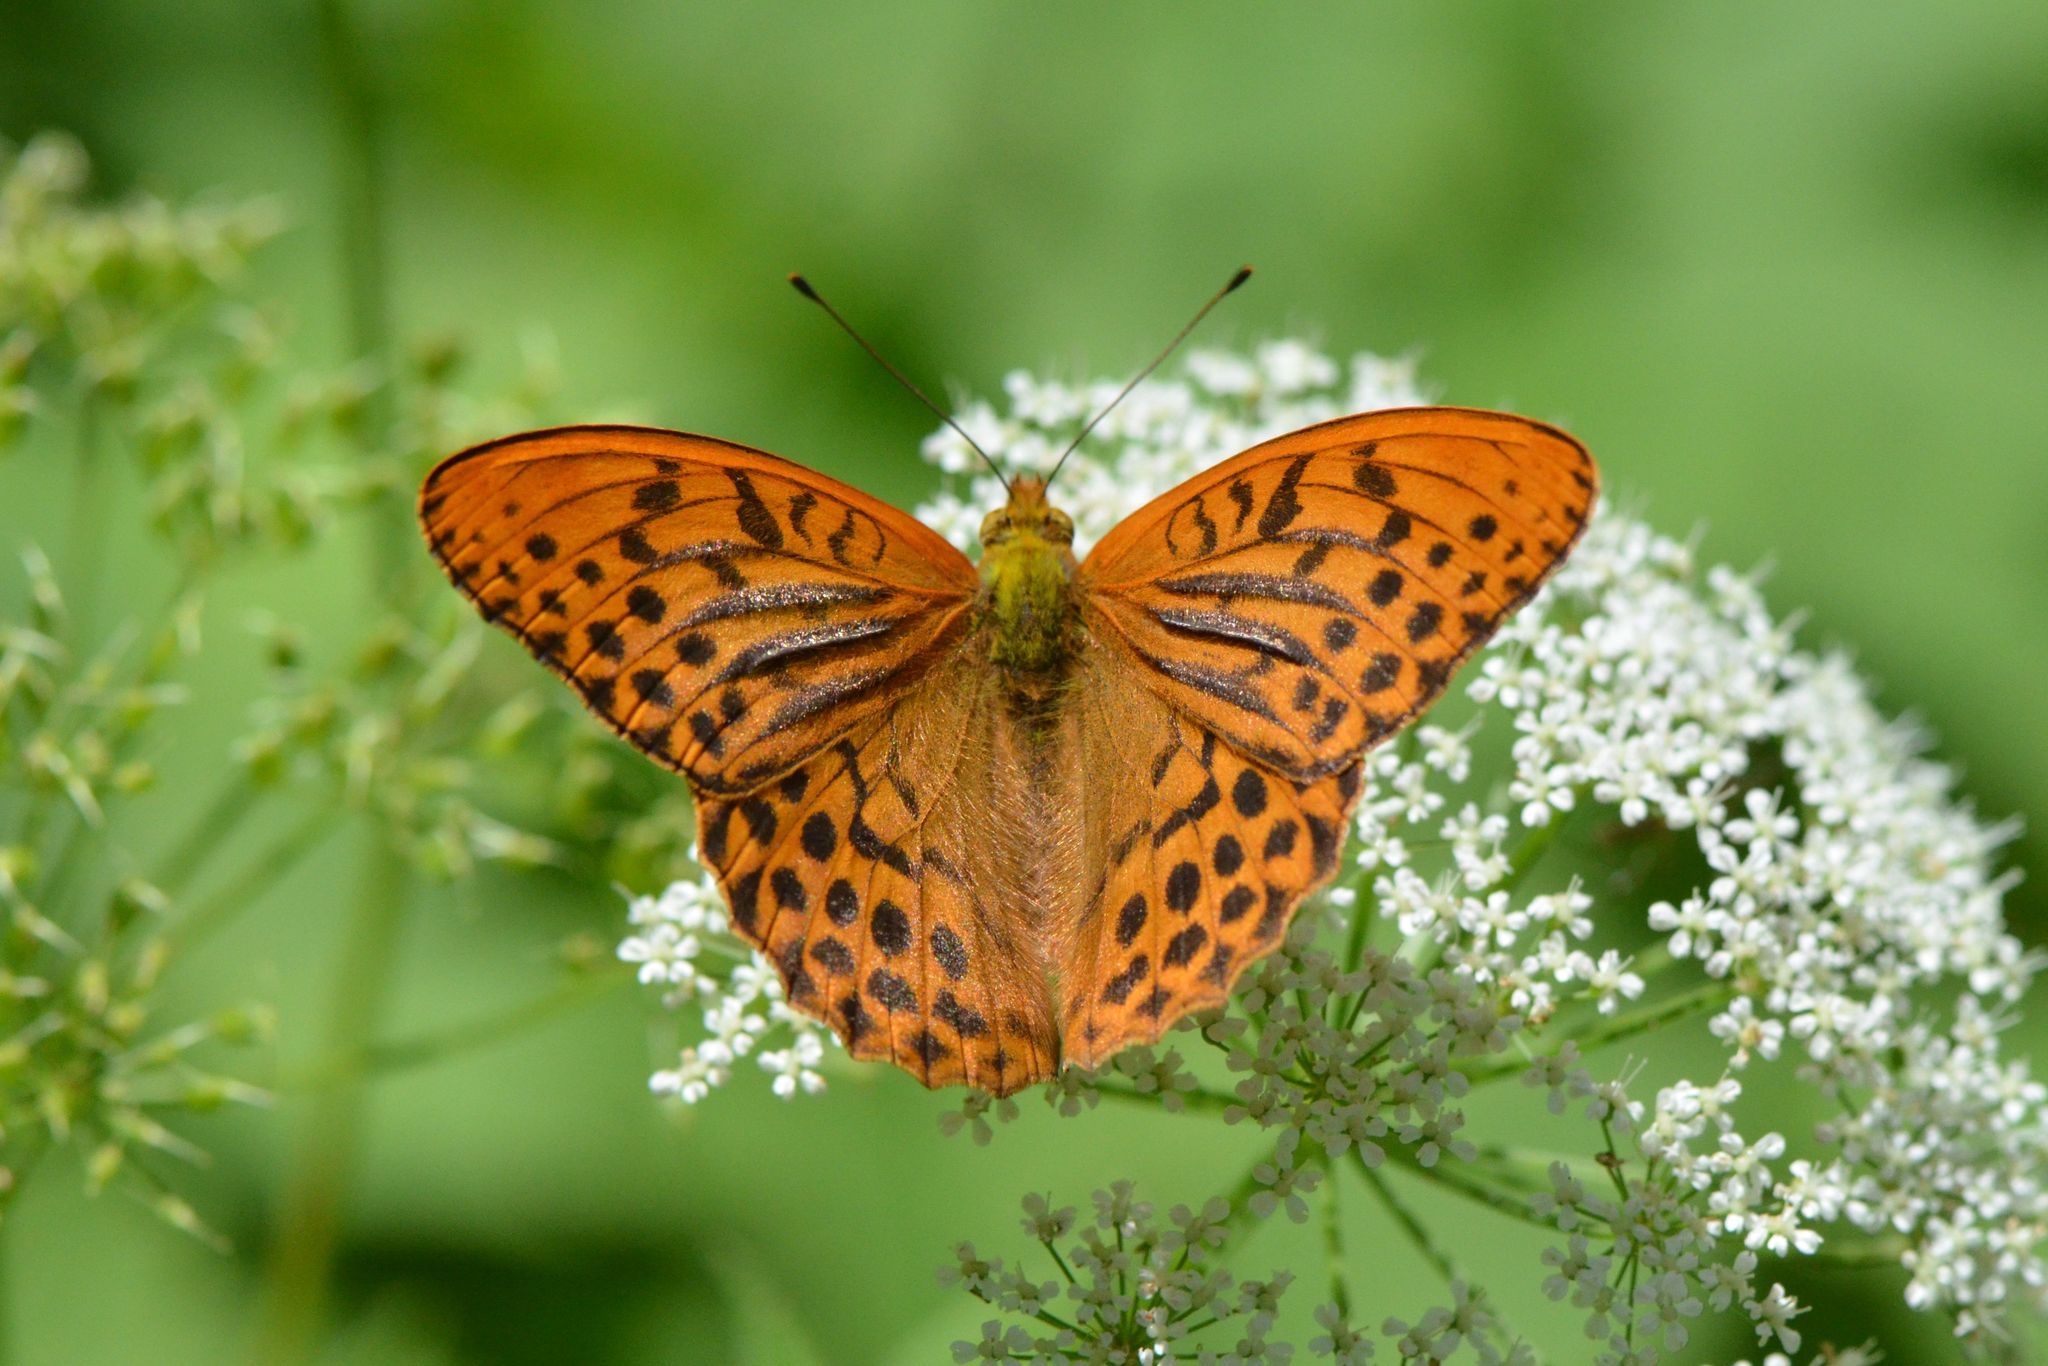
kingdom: Animalia
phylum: Arthropoda
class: Insecta
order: Lepidoptera
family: Nymphalidae
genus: Argynnis
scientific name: Argynnis paphia
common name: Silver-washed fritillary
